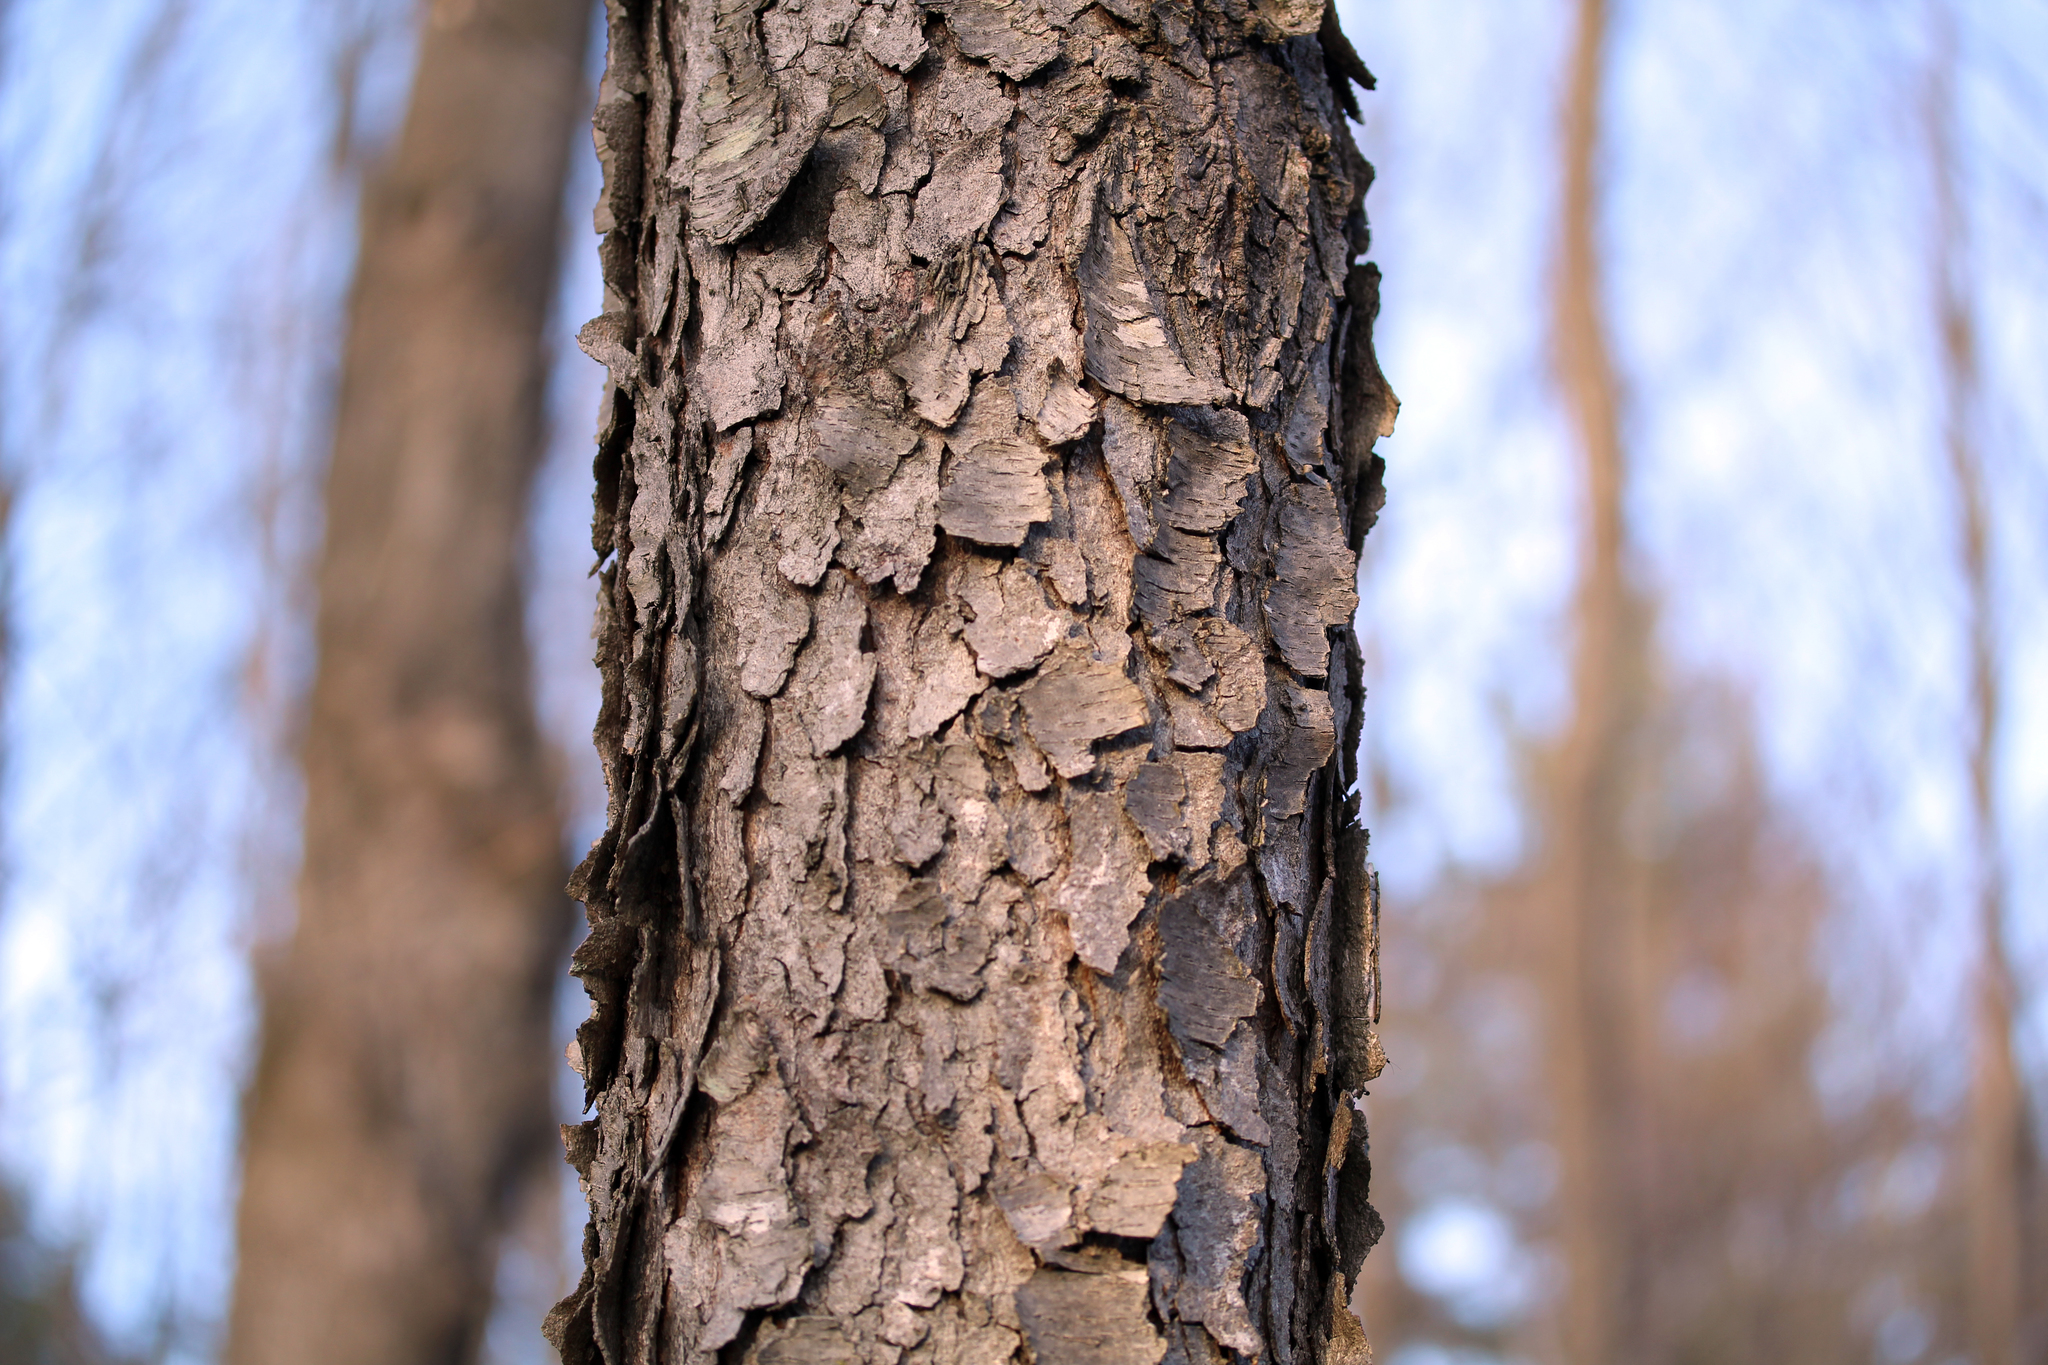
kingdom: Plantae
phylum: Tracheophyta
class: Magnoliopsida
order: Rosales
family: Rosaceae
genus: Prunus
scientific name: Prunus serotina
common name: Black cherry
